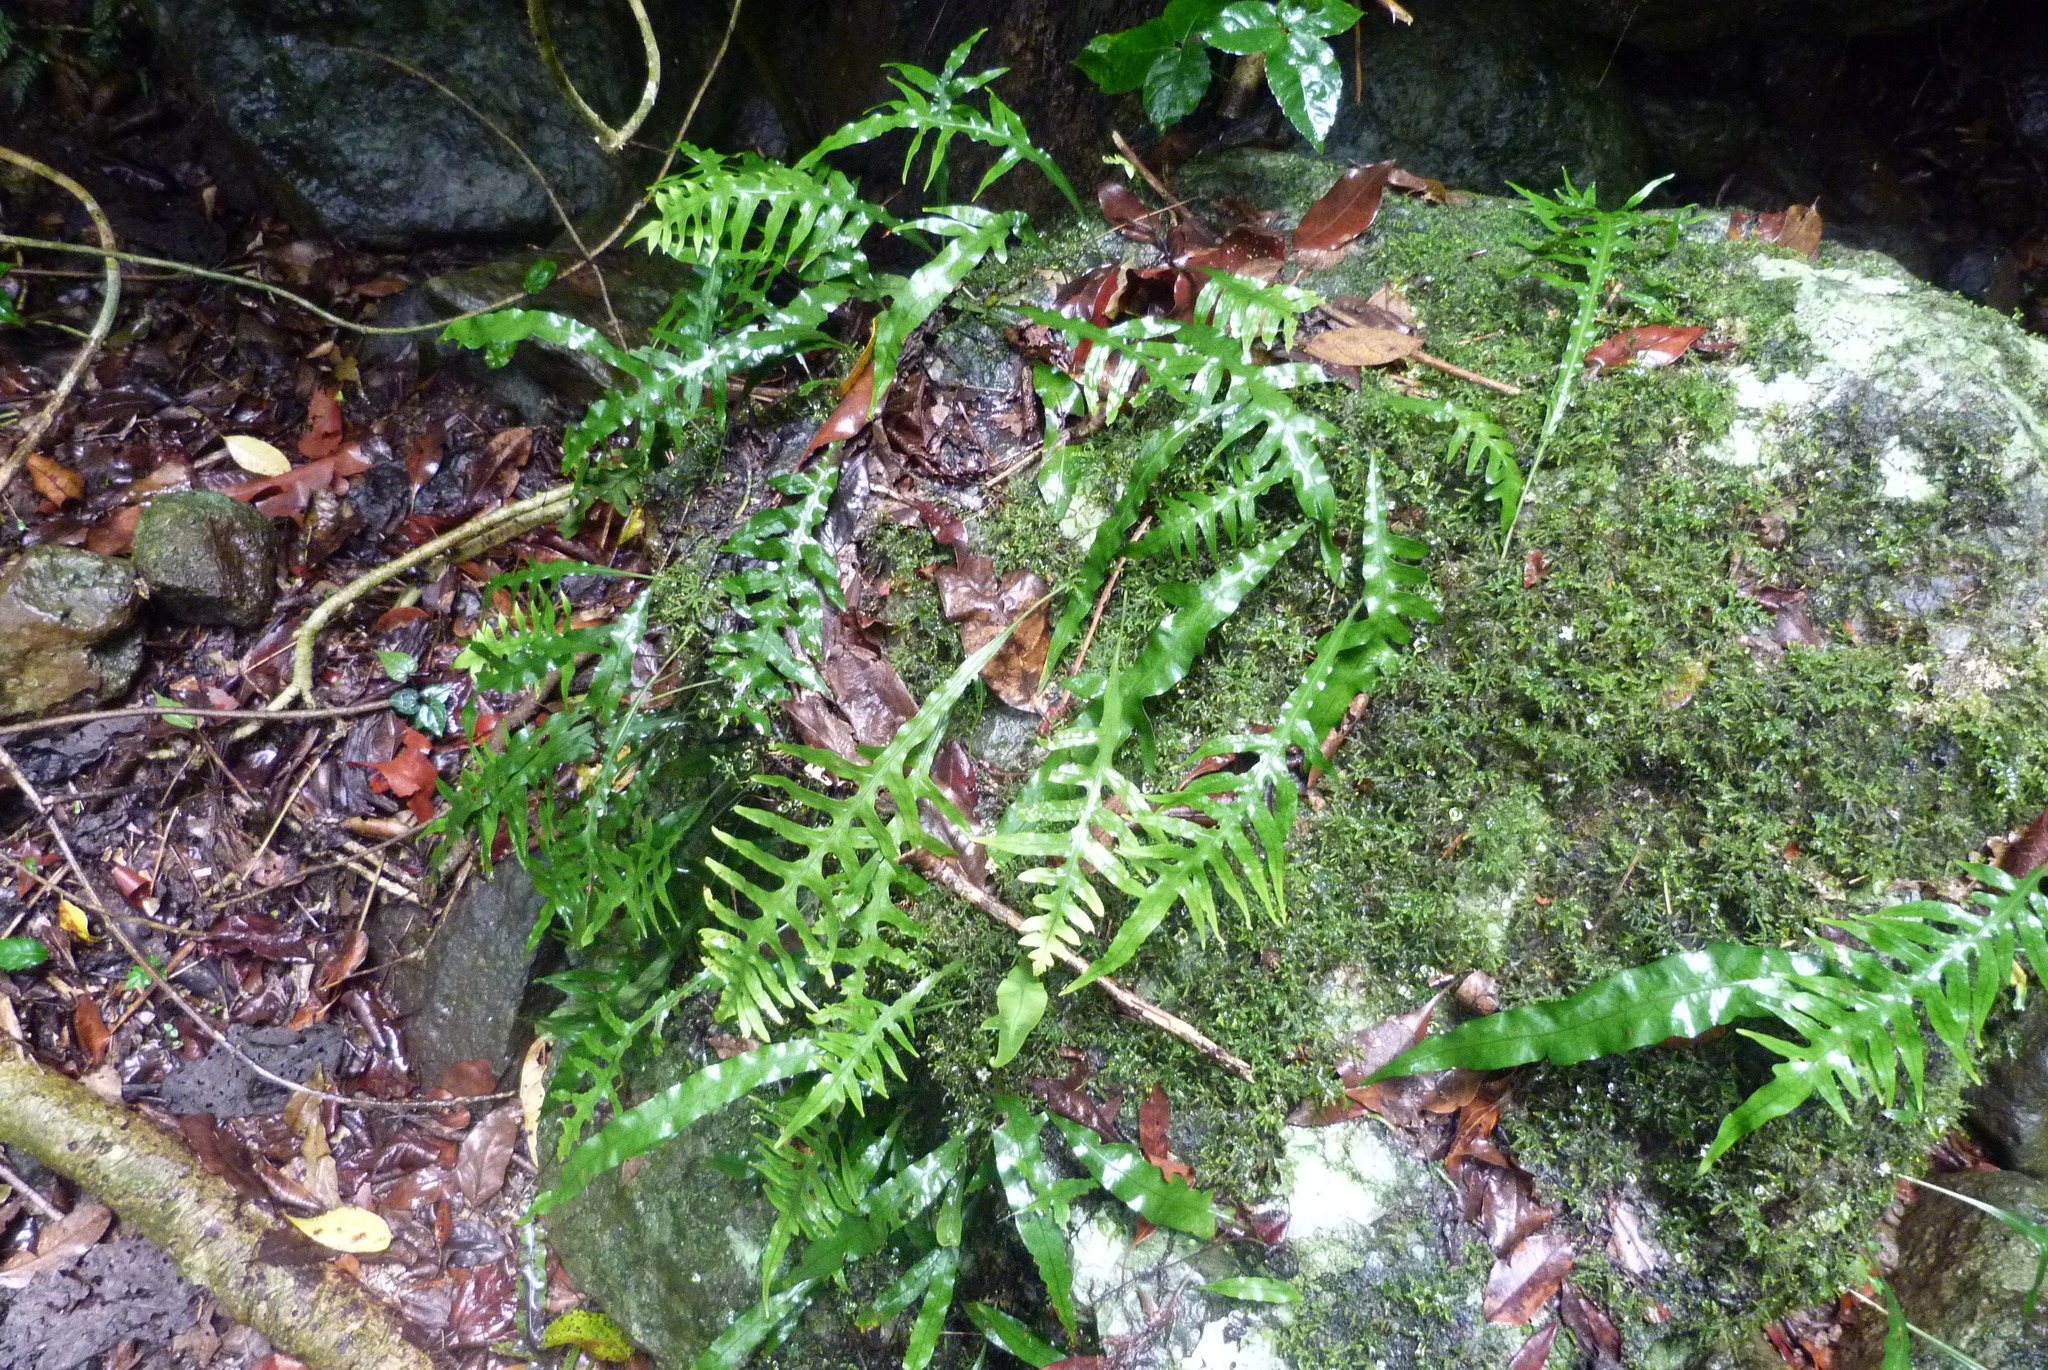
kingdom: Plantae
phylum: Tracheophyta
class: Polypodiopsida
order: Polypodiales
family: Polypodiaceae
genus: Lecanopteris
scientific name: Lecanopteris scandens
